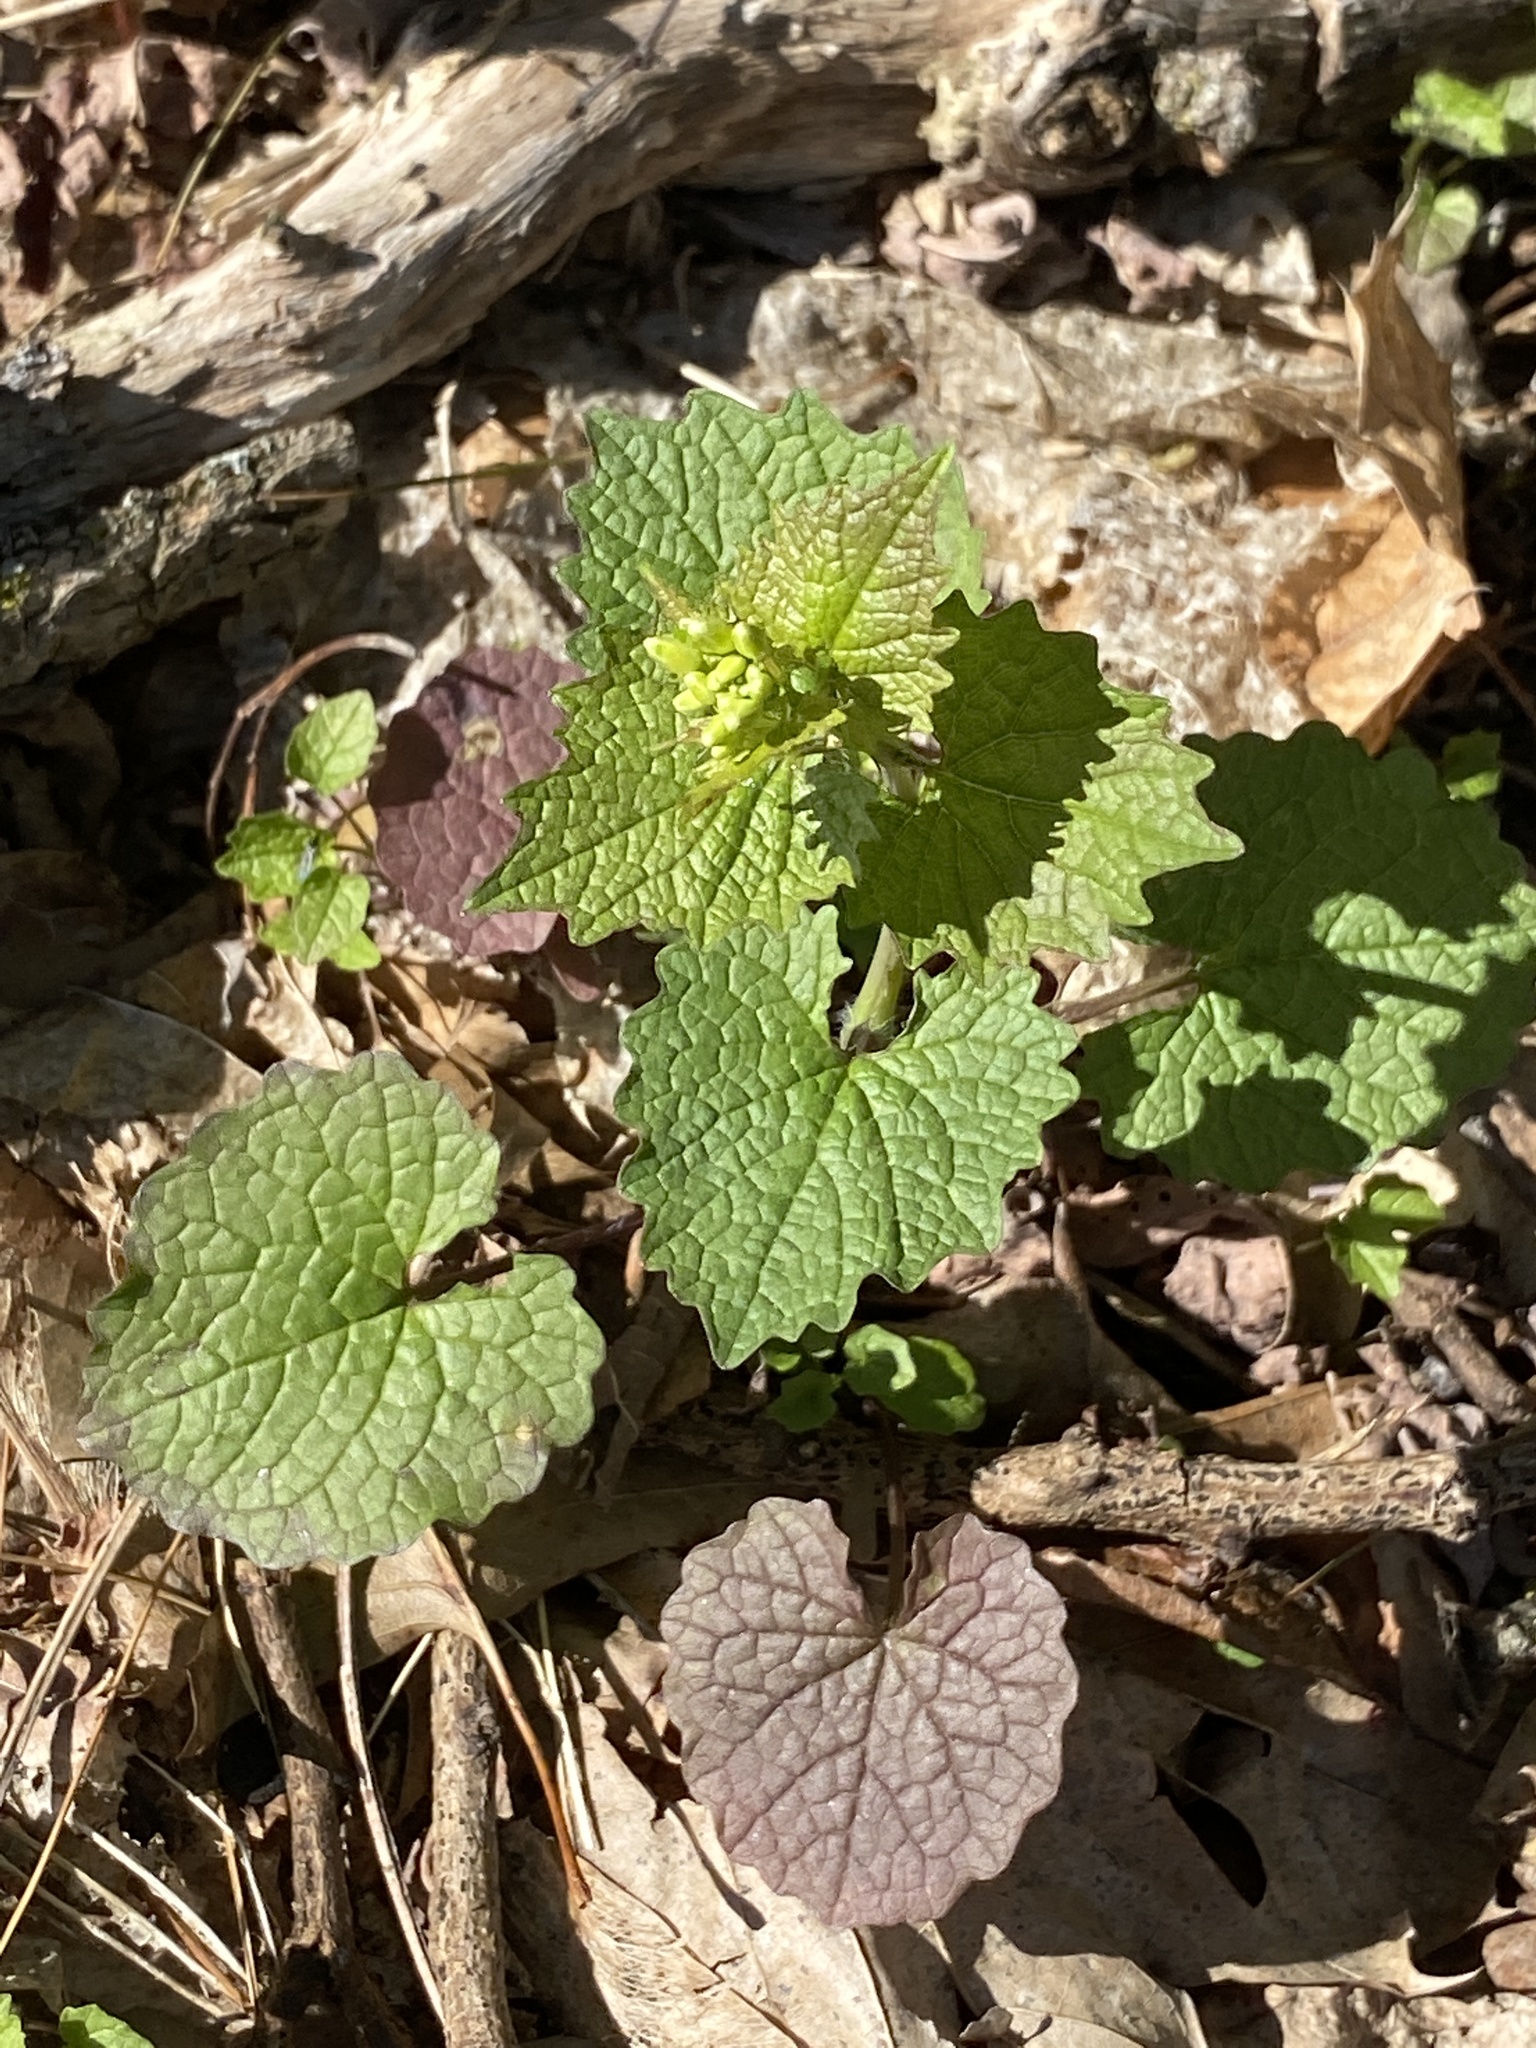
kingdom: Plantae
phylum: Tracheophyta
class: Magnoliopsida
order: Brassicales
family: Brassicaceae
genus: Alliaria
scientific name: Alliaria petiolata
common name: Garlic mustard
